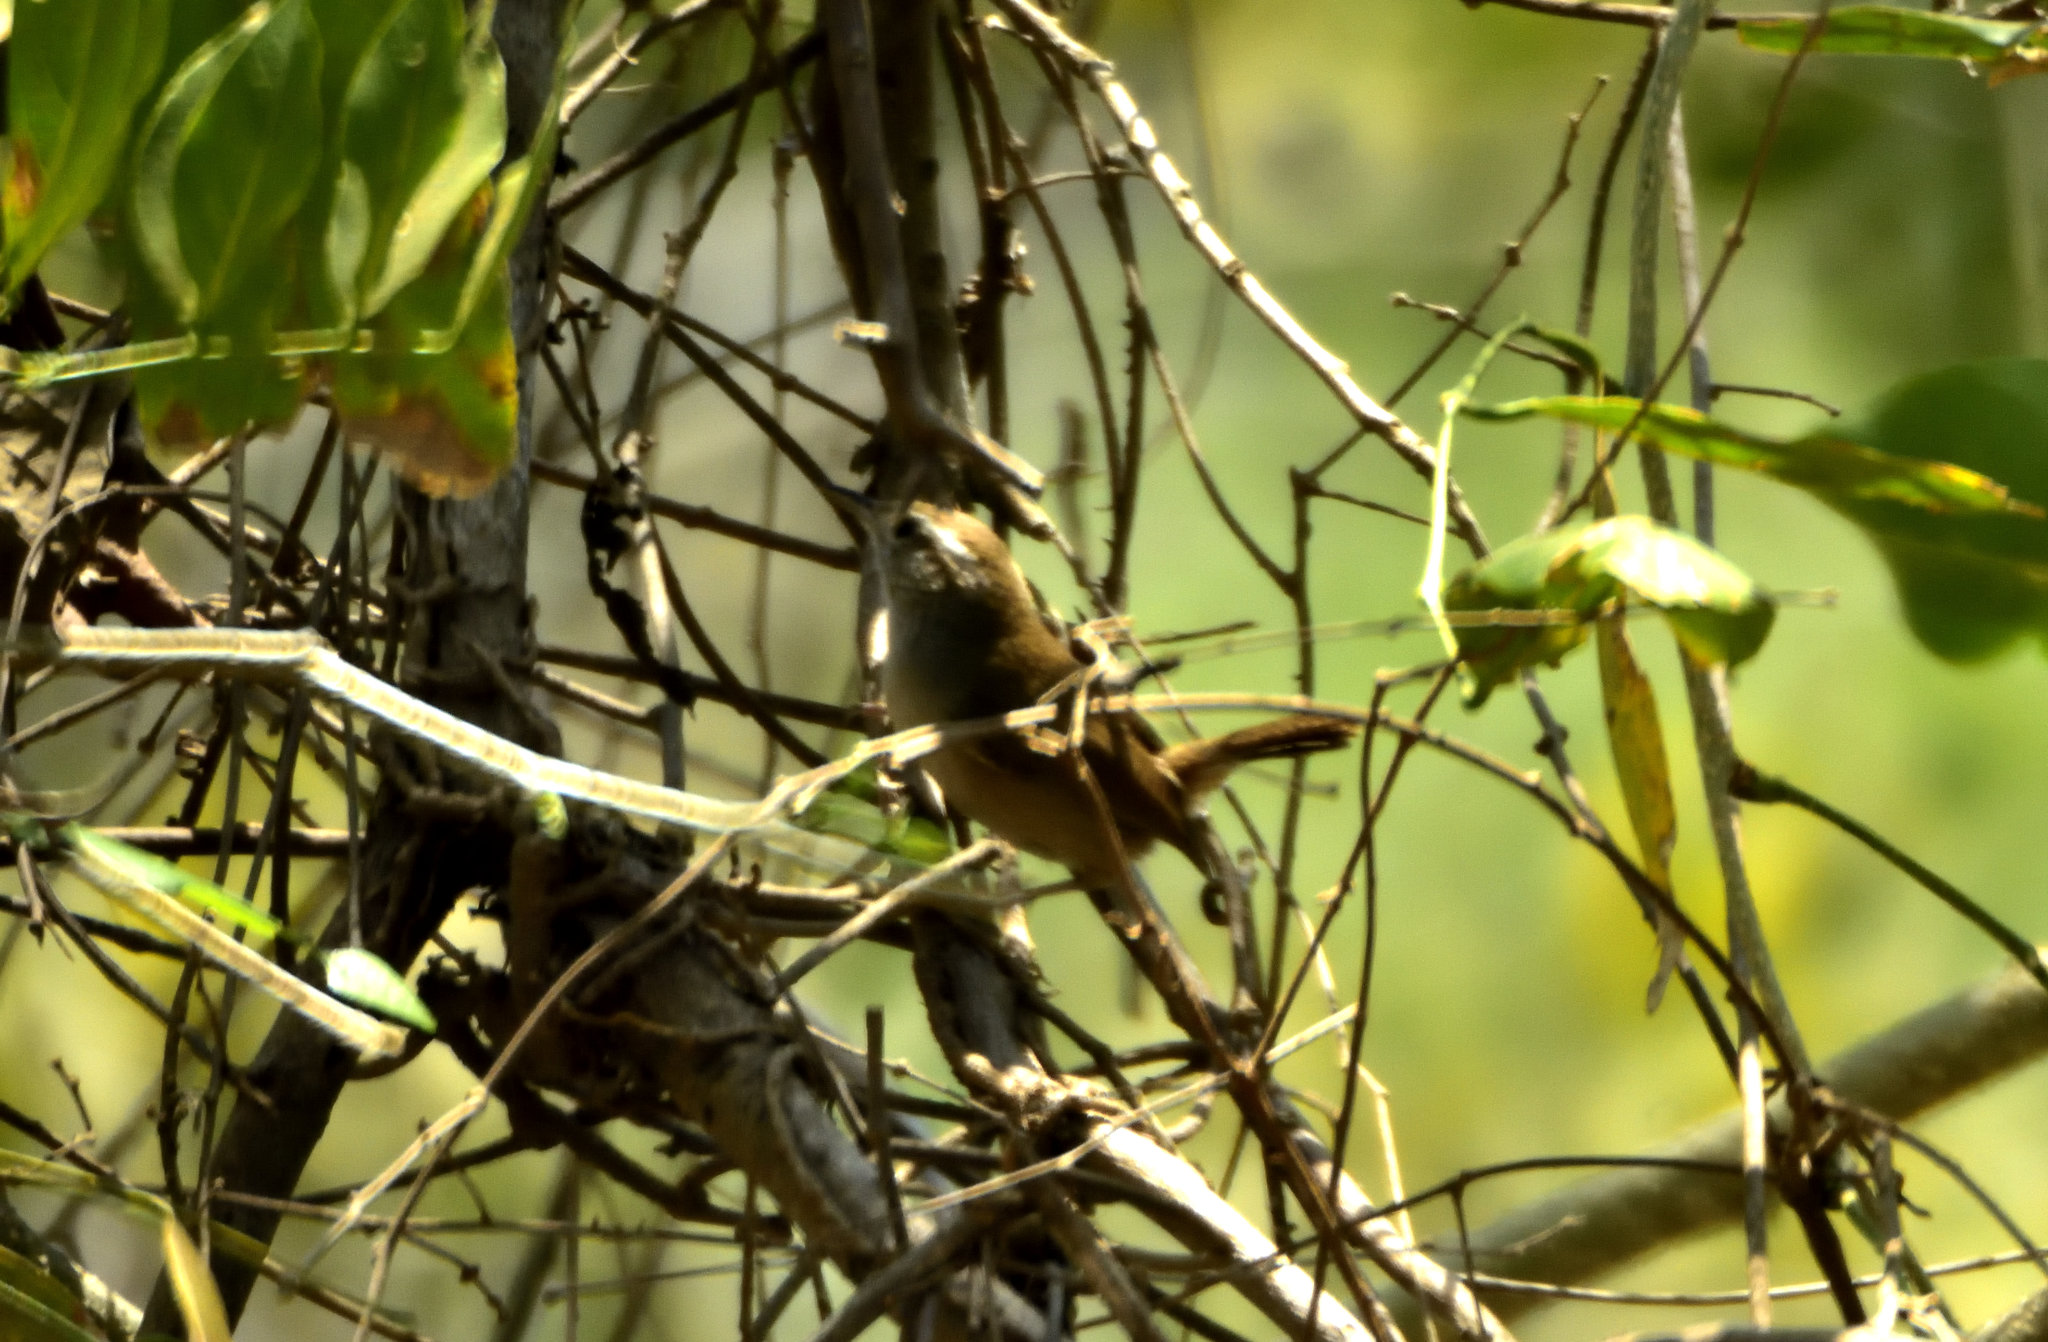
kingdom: Animalia
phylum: Chordata
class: Aves
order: Passeriformes
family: Troglodytidae
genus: Thryophilus
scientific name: Thryophilus sinaloa
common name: Sinaloa wren
